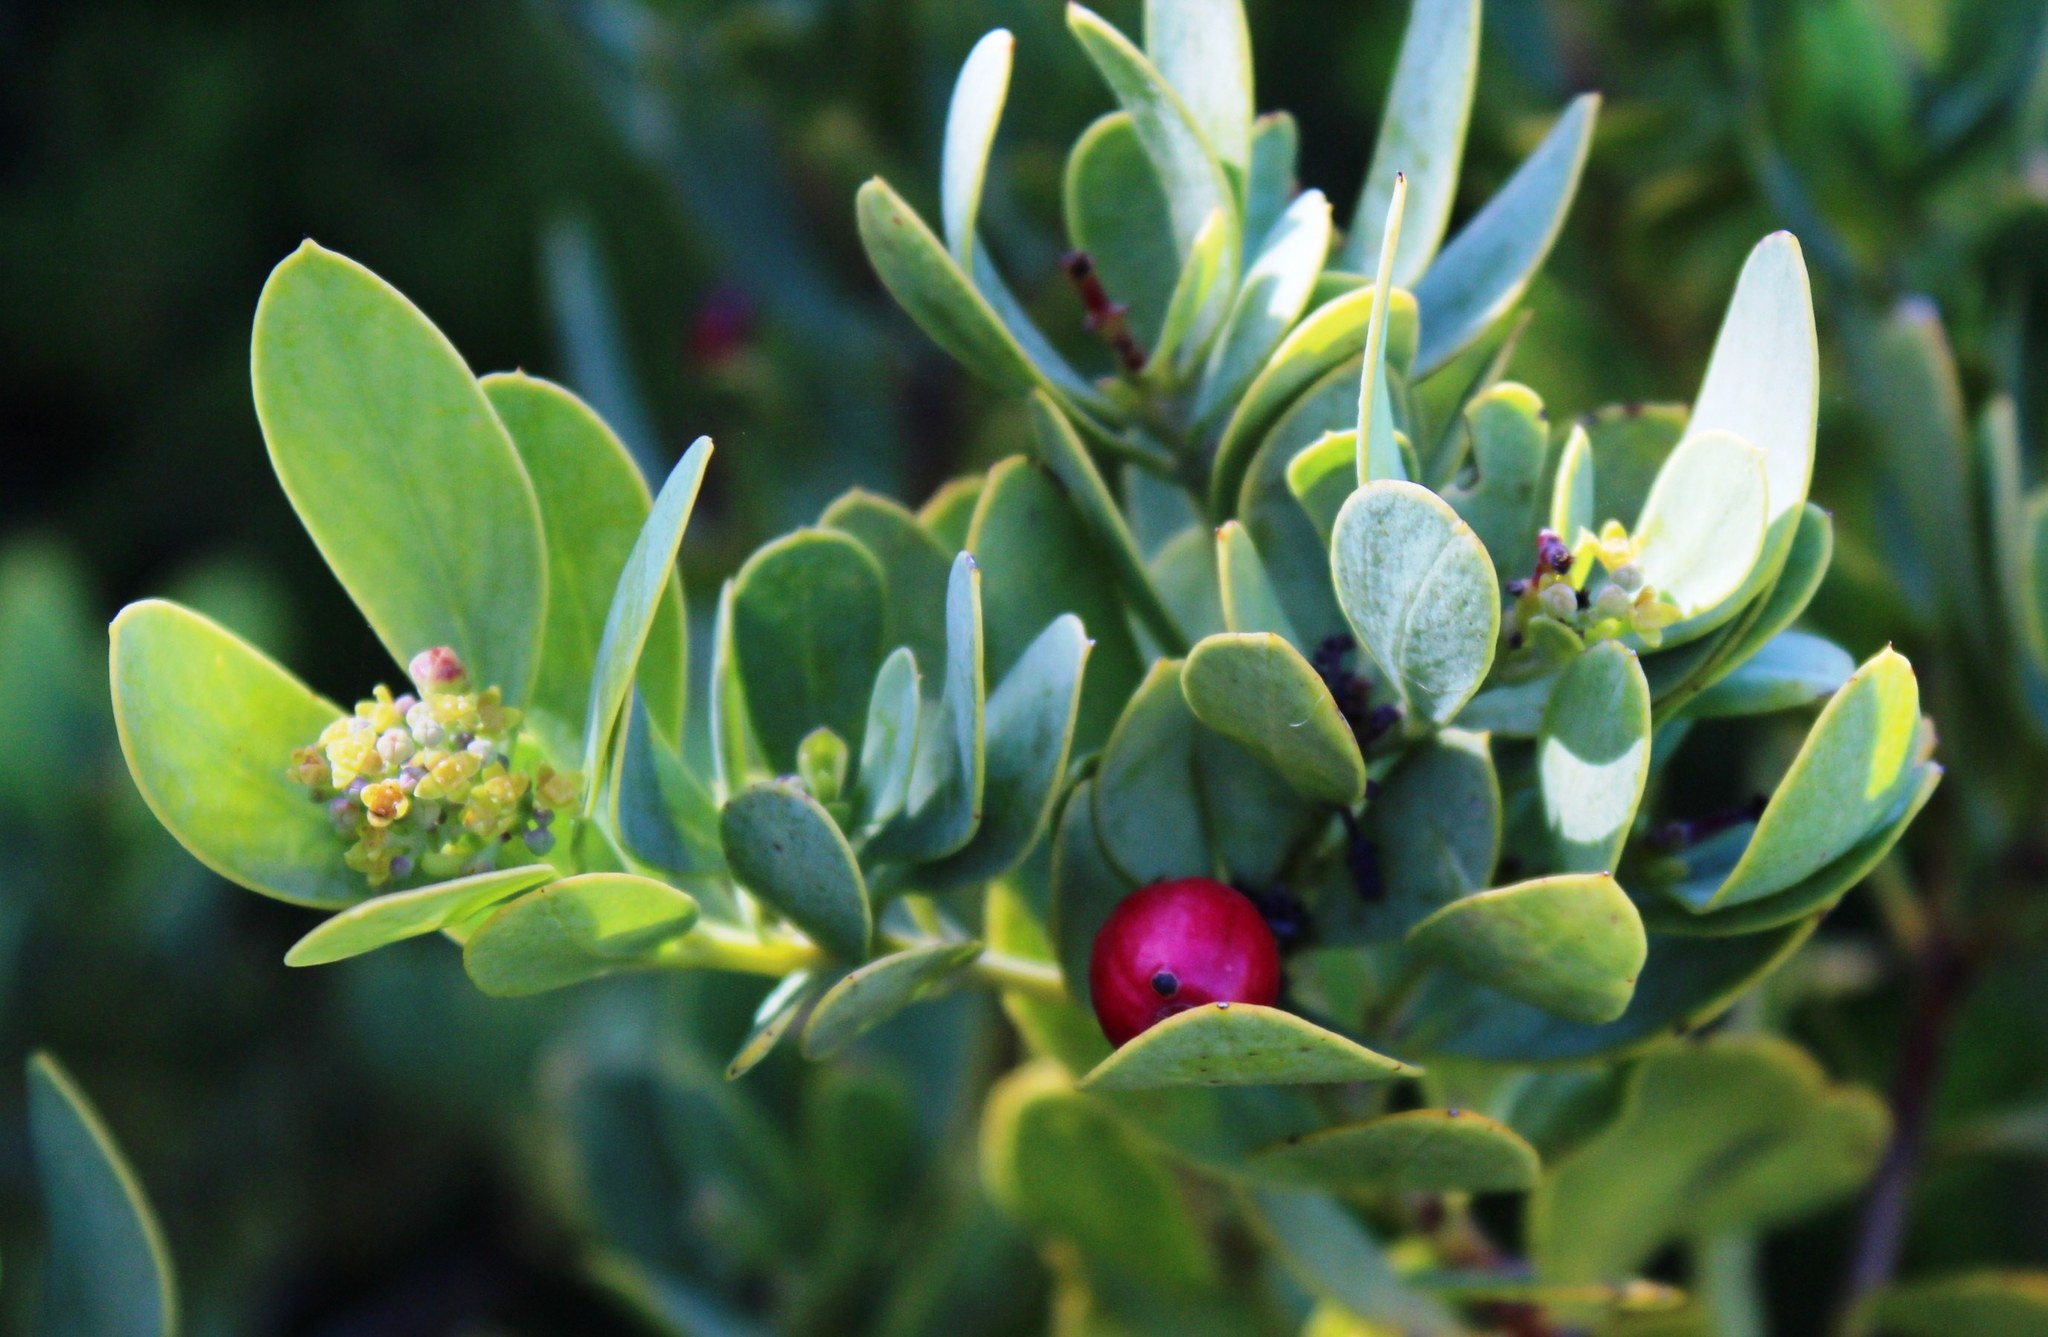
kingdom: Plantae
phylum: Tracheophyta
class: Magnoliopsida
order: Santalales
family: Santalaceae
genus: Osyris
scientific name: Osyris compressa
